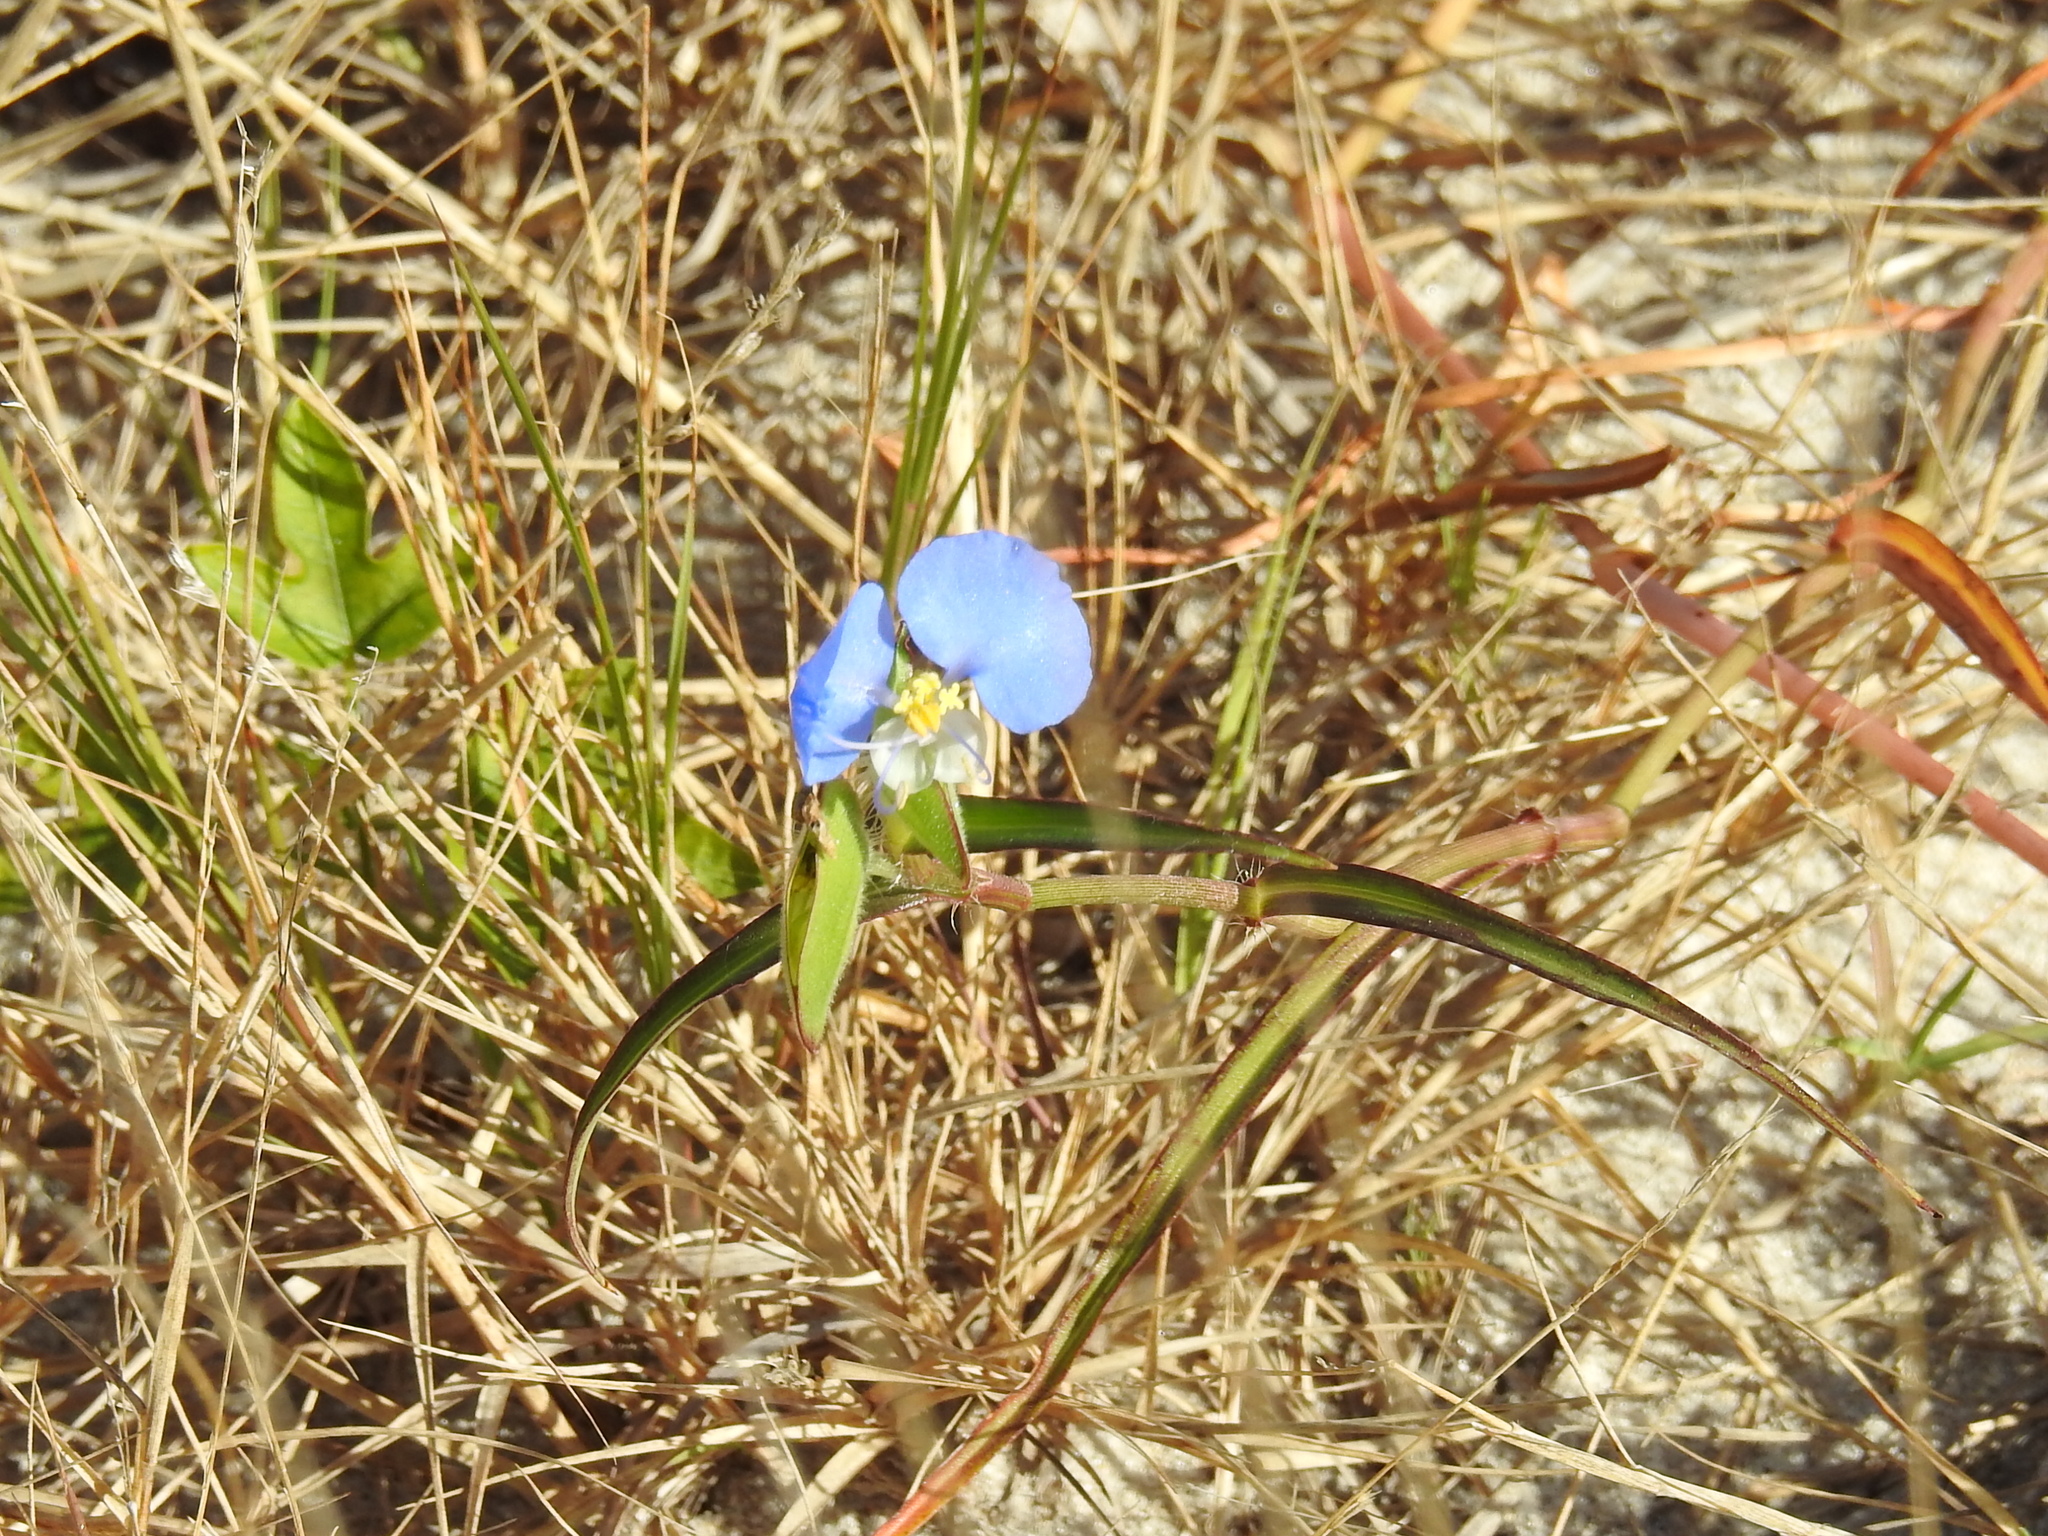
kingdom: Plantae
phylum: Tracheophyta
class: Liliopsida
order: Commelinales
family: Commelinaceae
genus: Commelina
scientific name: Commelina erecta
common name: Blousel blommetjie
